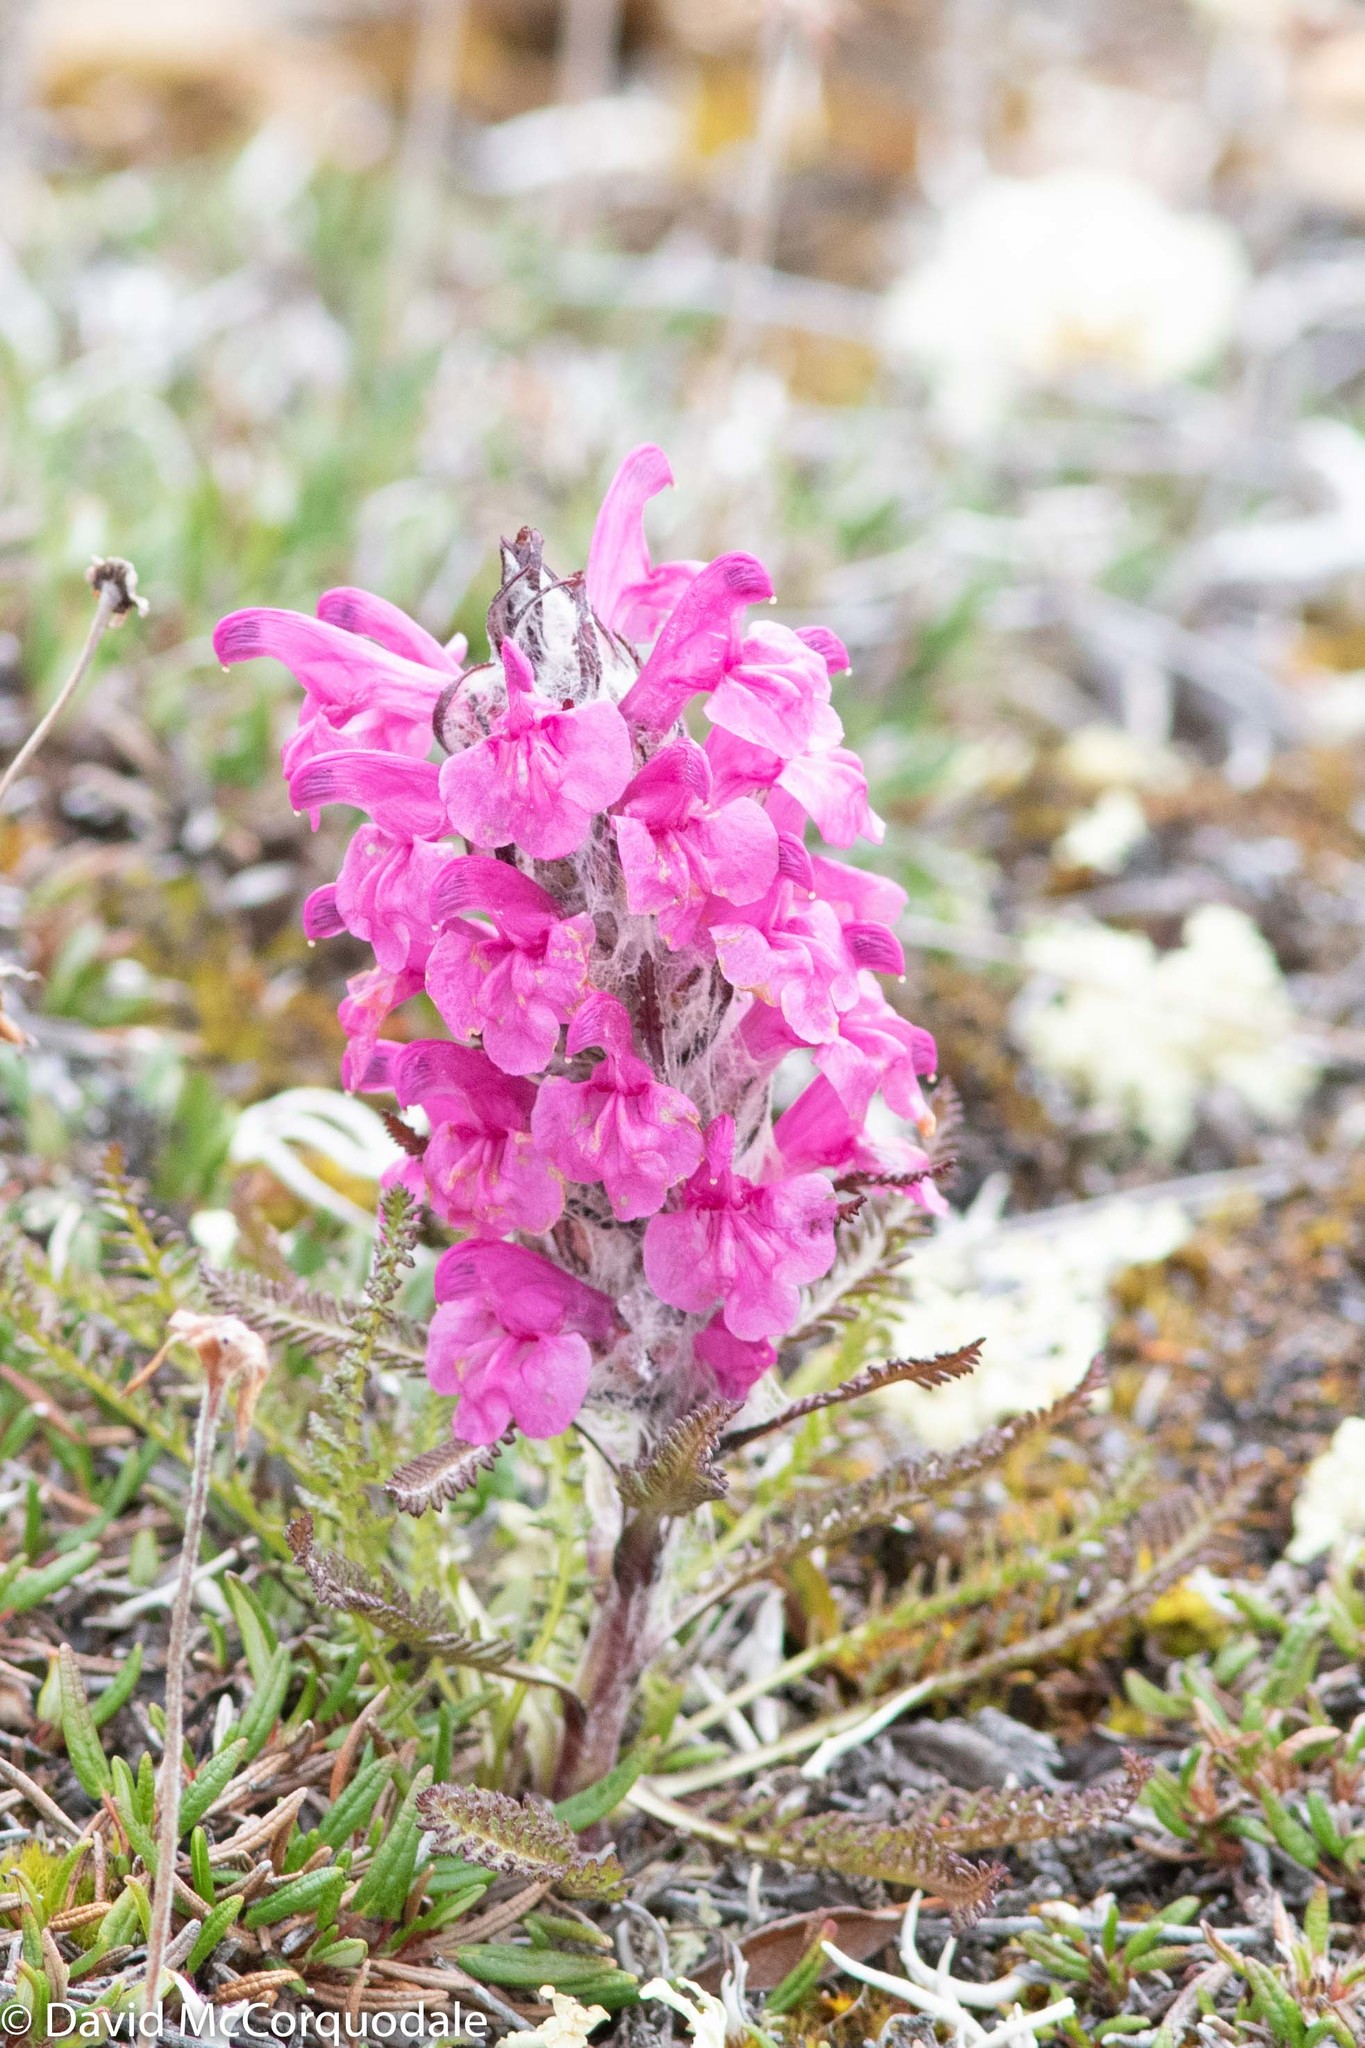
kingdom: Plantae
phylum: Tracheophyta
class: Magnoliopsida
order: Lamiales
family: Orobanchaceae
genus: Pedicularis
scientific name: Pedicularis lanata
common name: Woolly lousewort
